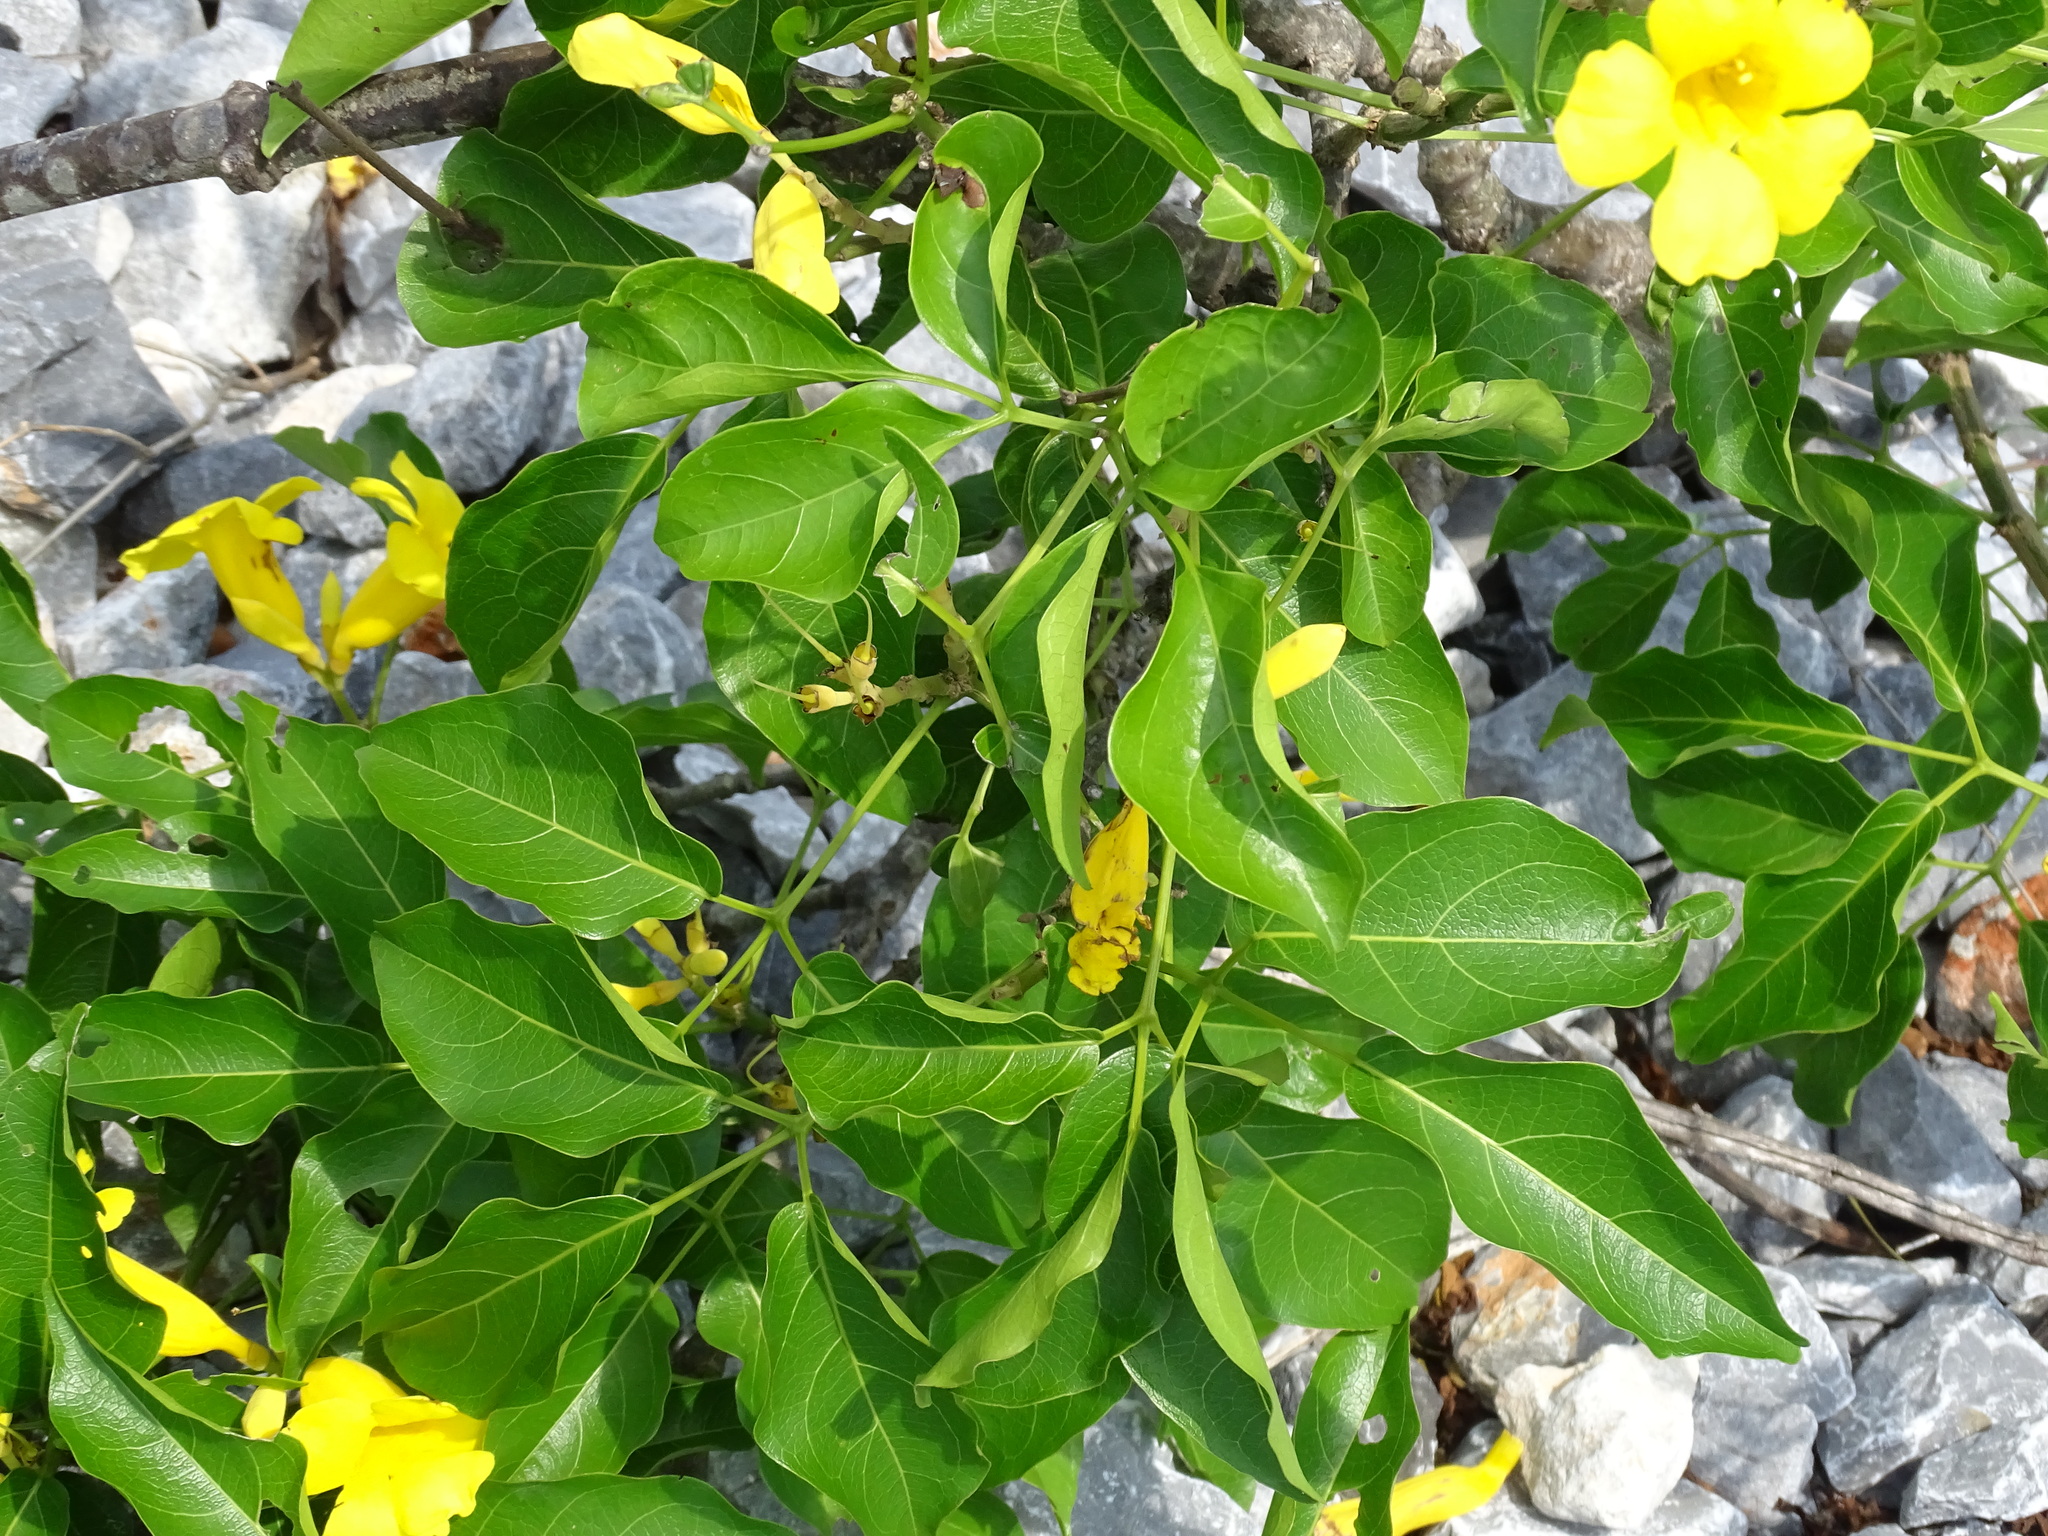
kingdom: Plantae
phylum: Tracheophyta
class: Magnoliopsida
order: Lamiales
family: Bignoniaceae
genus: Adenocalymma
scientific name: Adenocalymma inundatum
